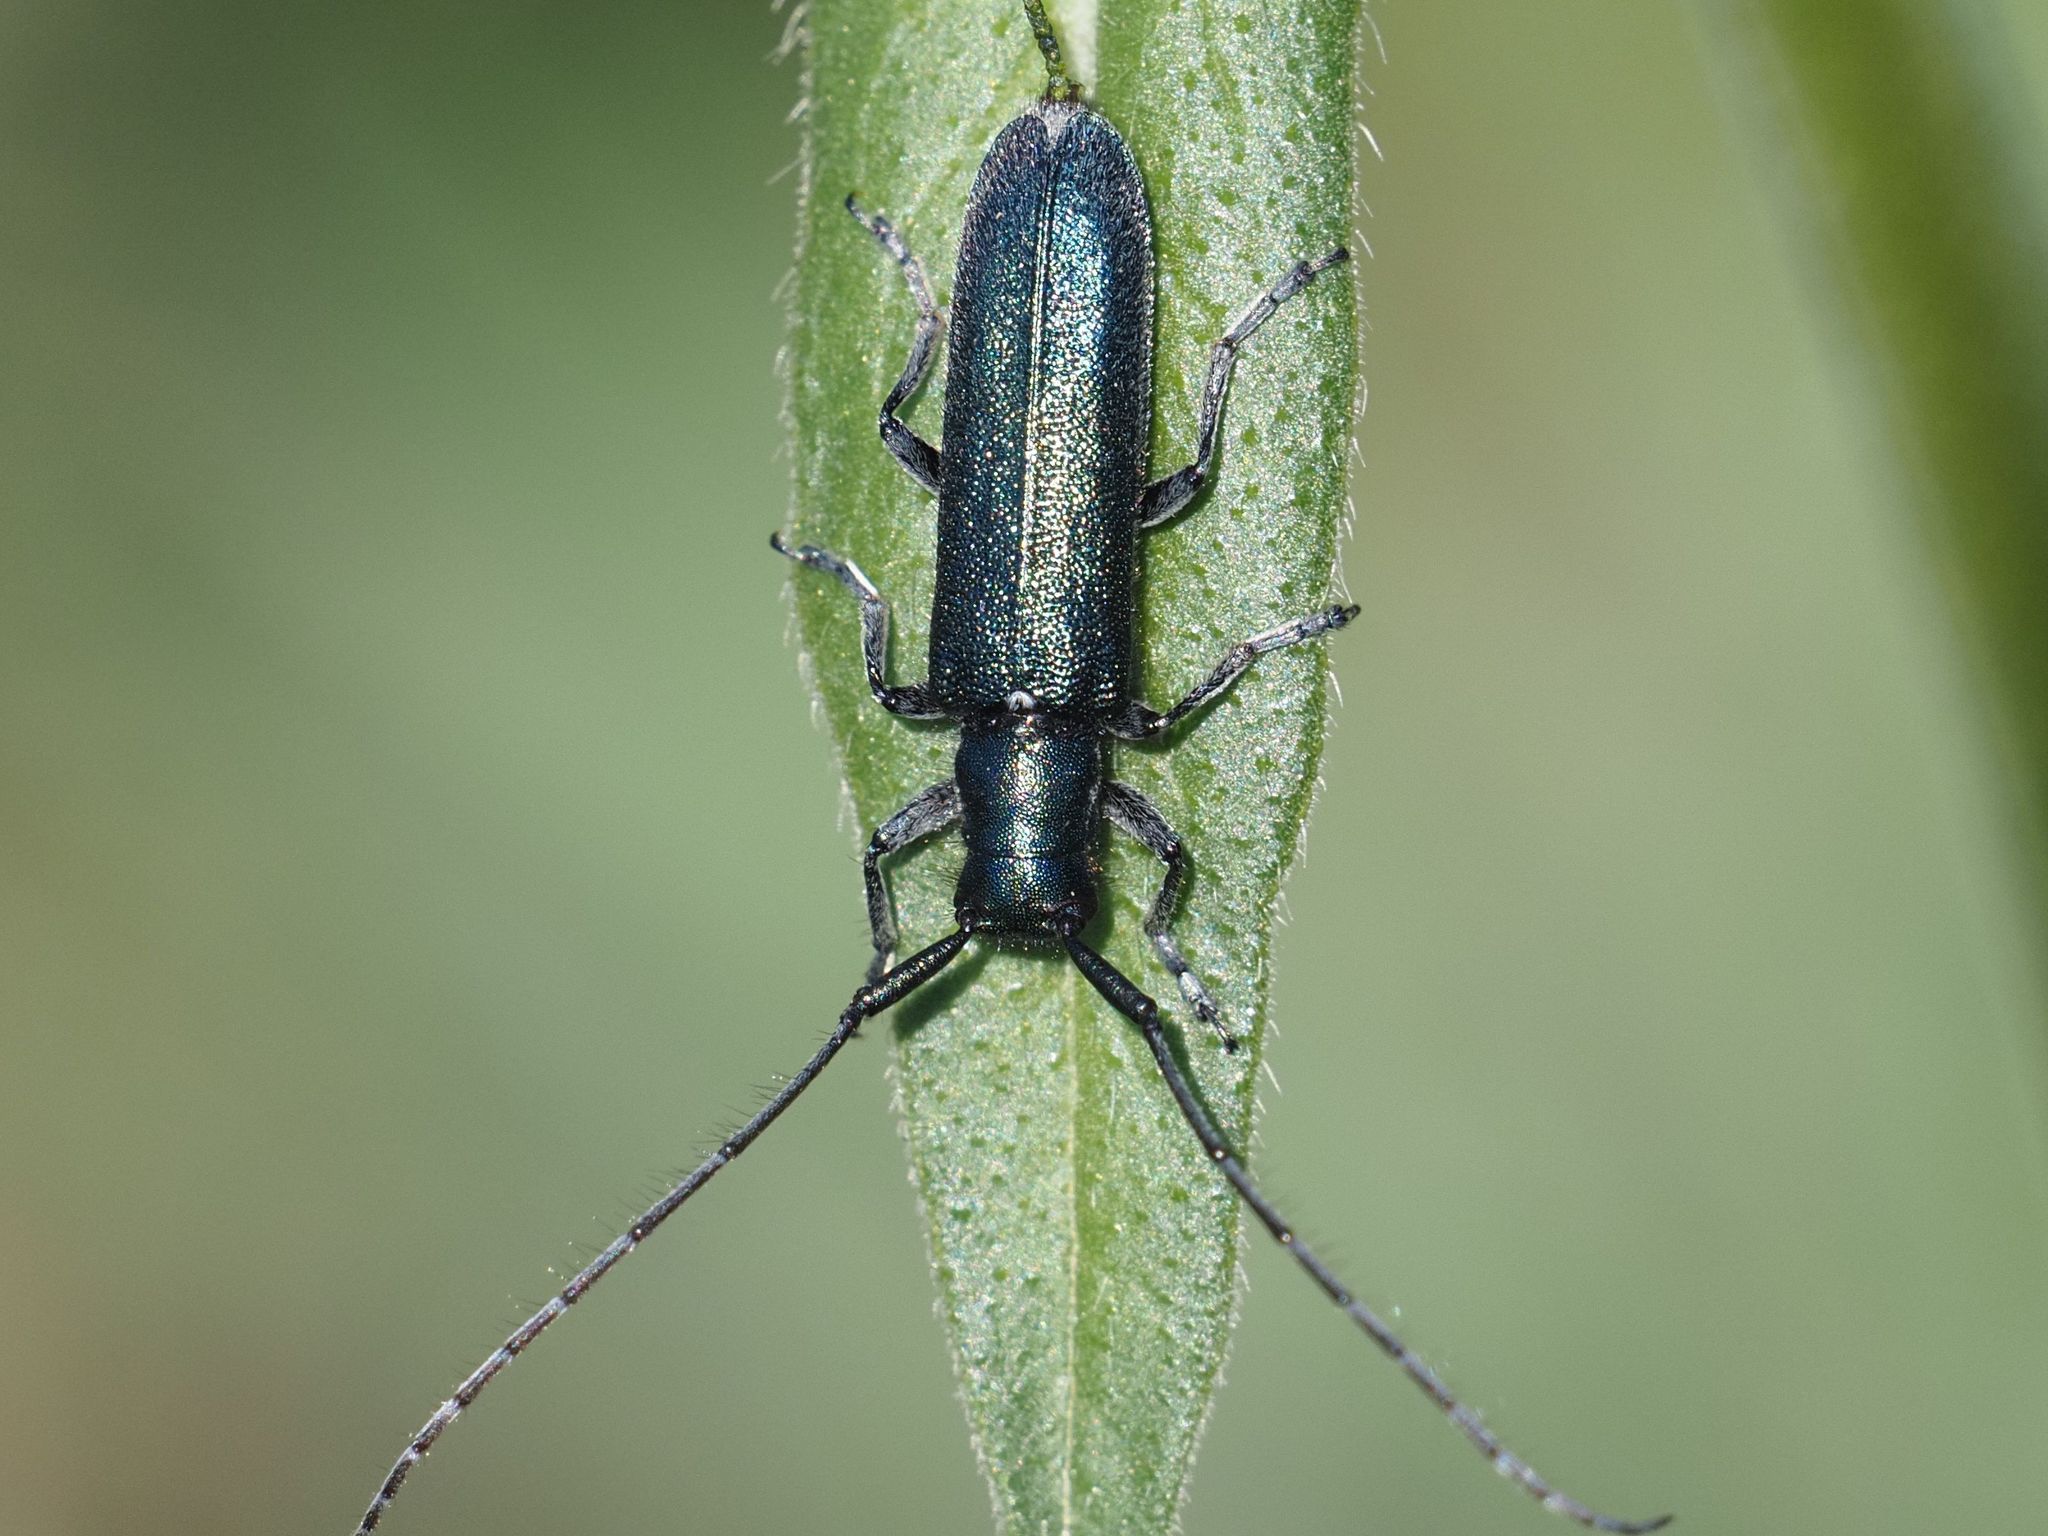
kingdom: Animalia
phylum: Arthropoda
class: Insecta
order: Coleoptera
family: Cerambycidae
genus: Agapanthia
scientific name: Agapanthia intermedia
